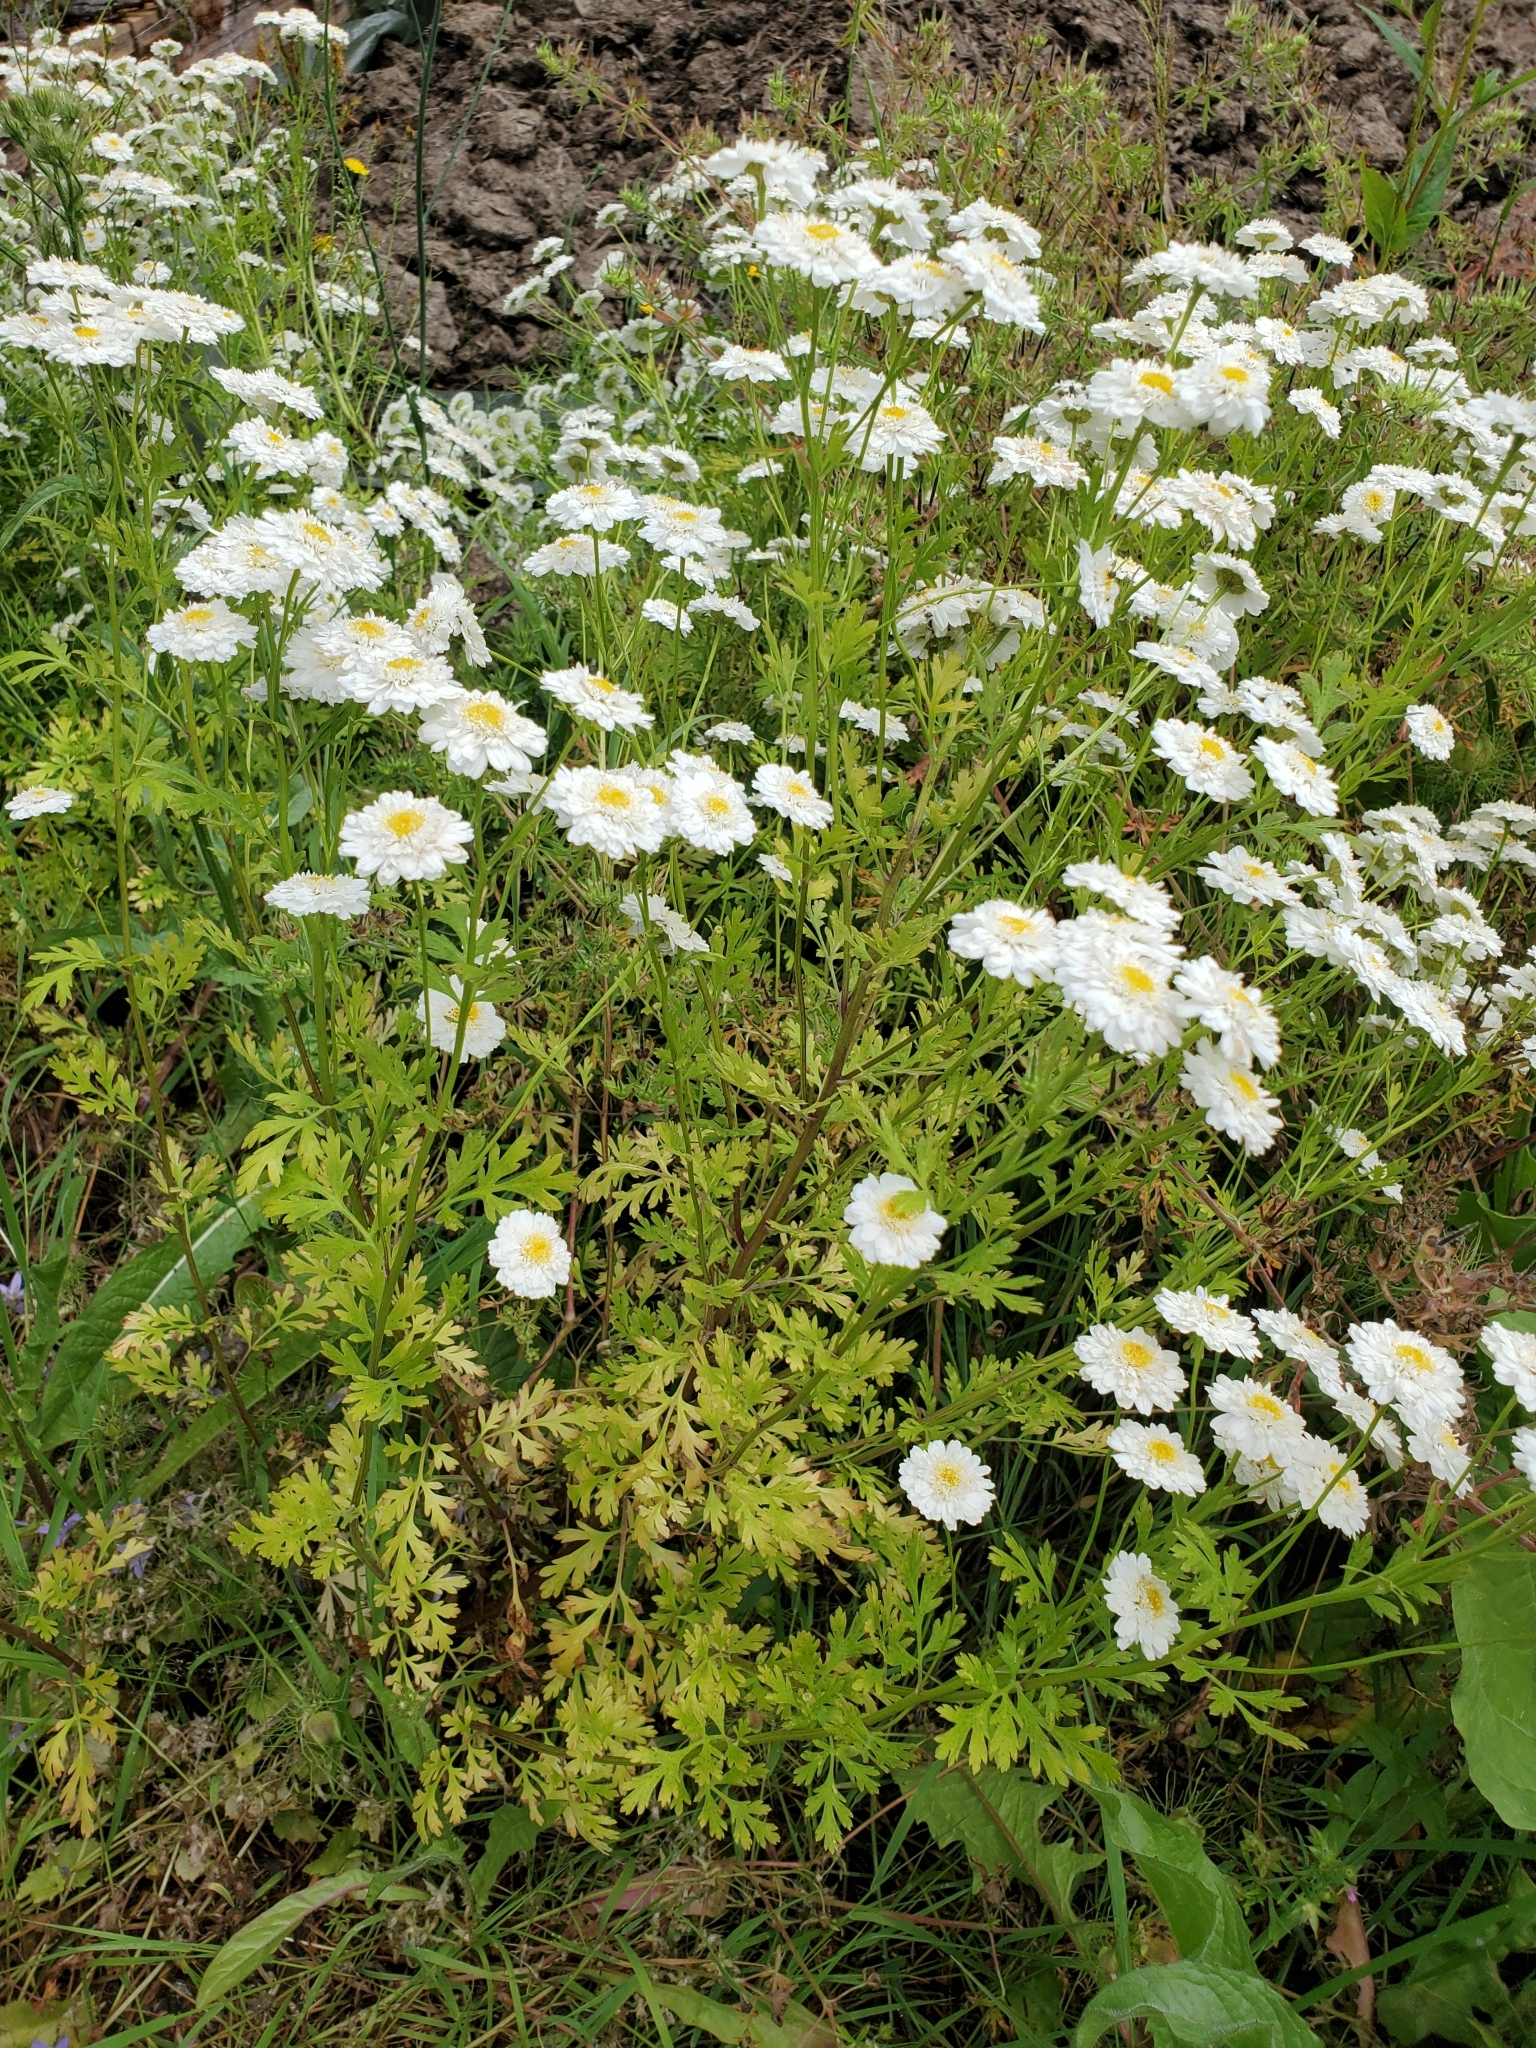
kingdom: Plantae
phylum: Tracheophyta
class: Magnoliopsida
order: Asterales
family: Asteraceae
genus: Tanacetum
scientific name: Tanacetum parthenium
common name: Feverfew
